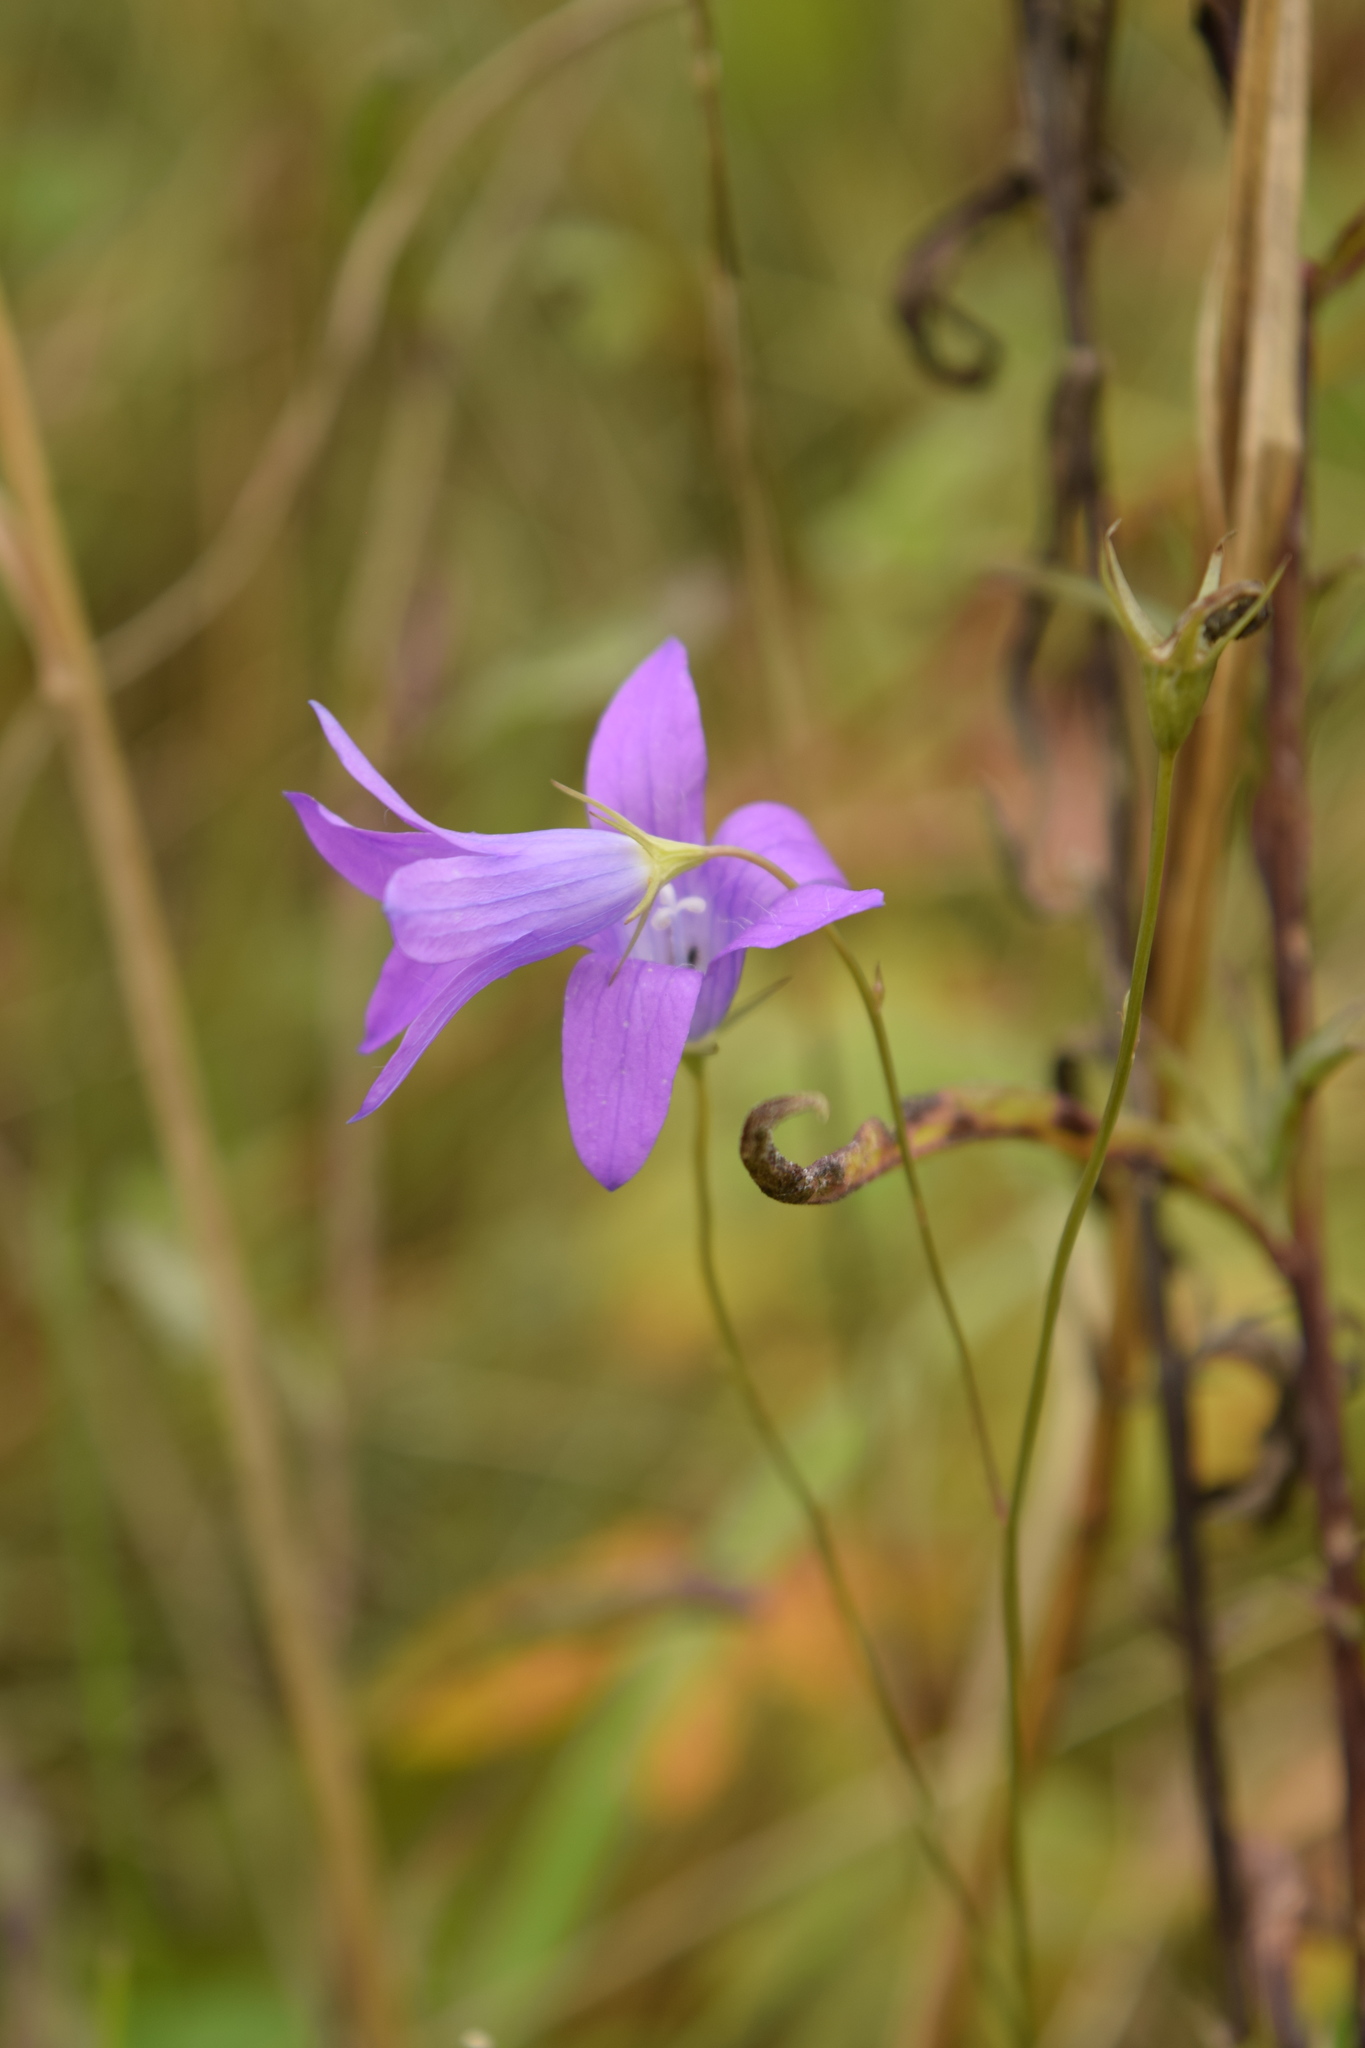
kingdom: Plantae
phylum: Tracheophyta
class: Magnoliopsida
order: Asterales
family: Campanulaceae
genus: Campanula
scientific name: Campanula patula
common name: Spreading bellflower
